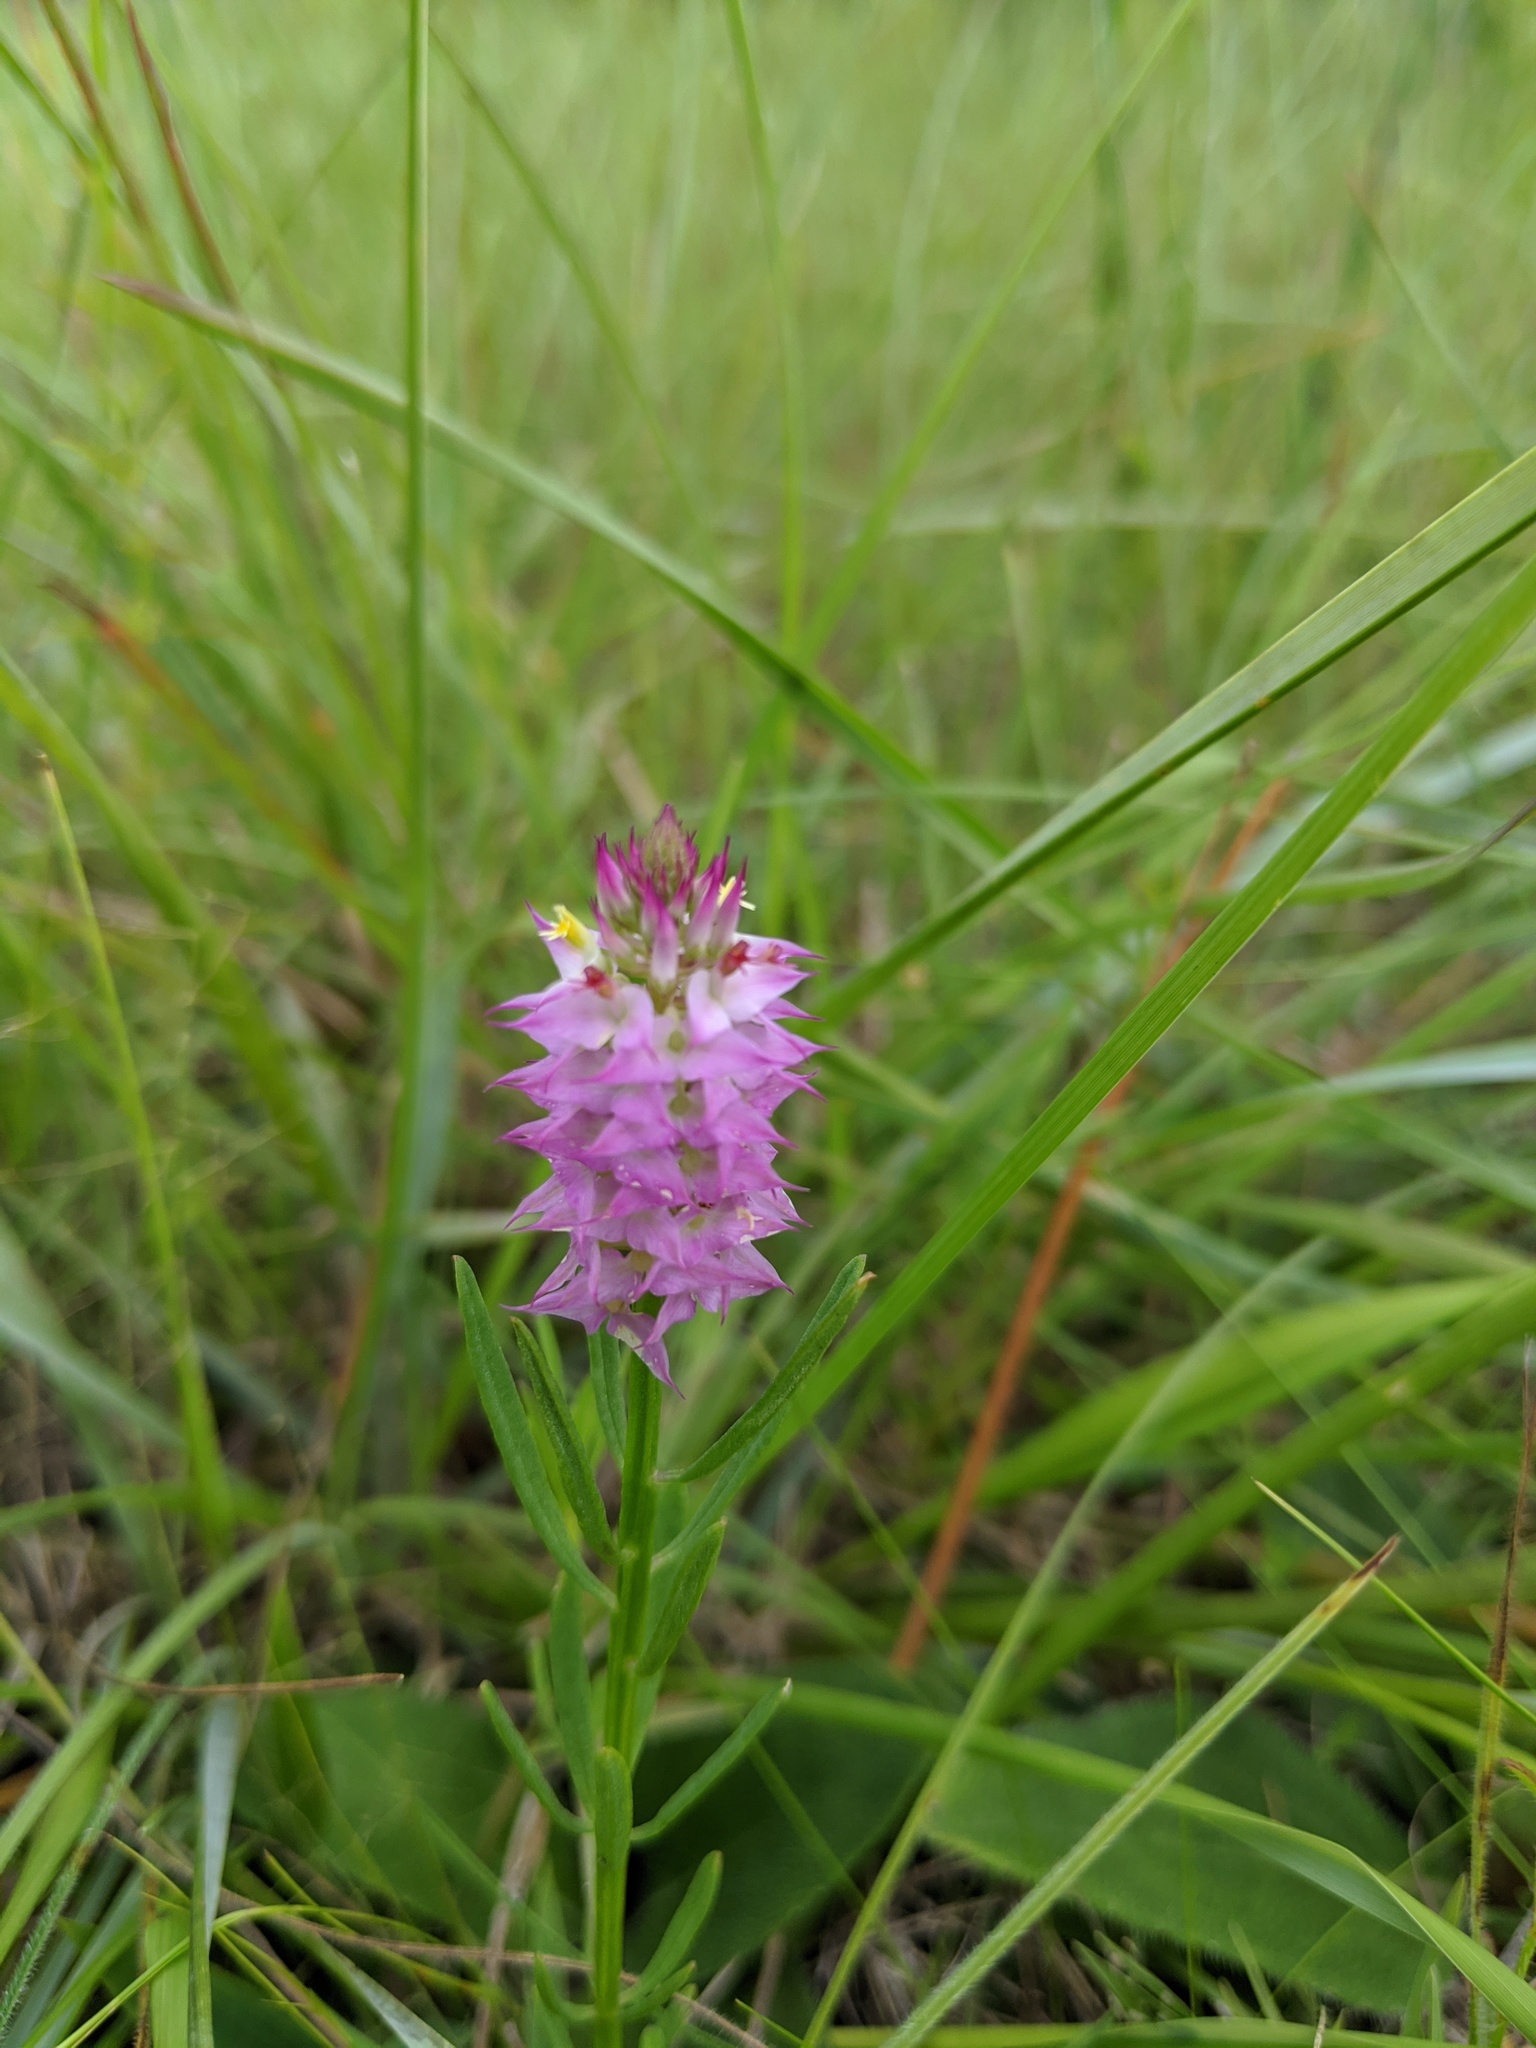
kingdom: Plantae
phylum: Tracheophyta
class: Magnoliopsida
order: Fabales
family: Polygalaceae
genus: Polygala
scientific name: Polygala cruciata
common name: Drumheads
